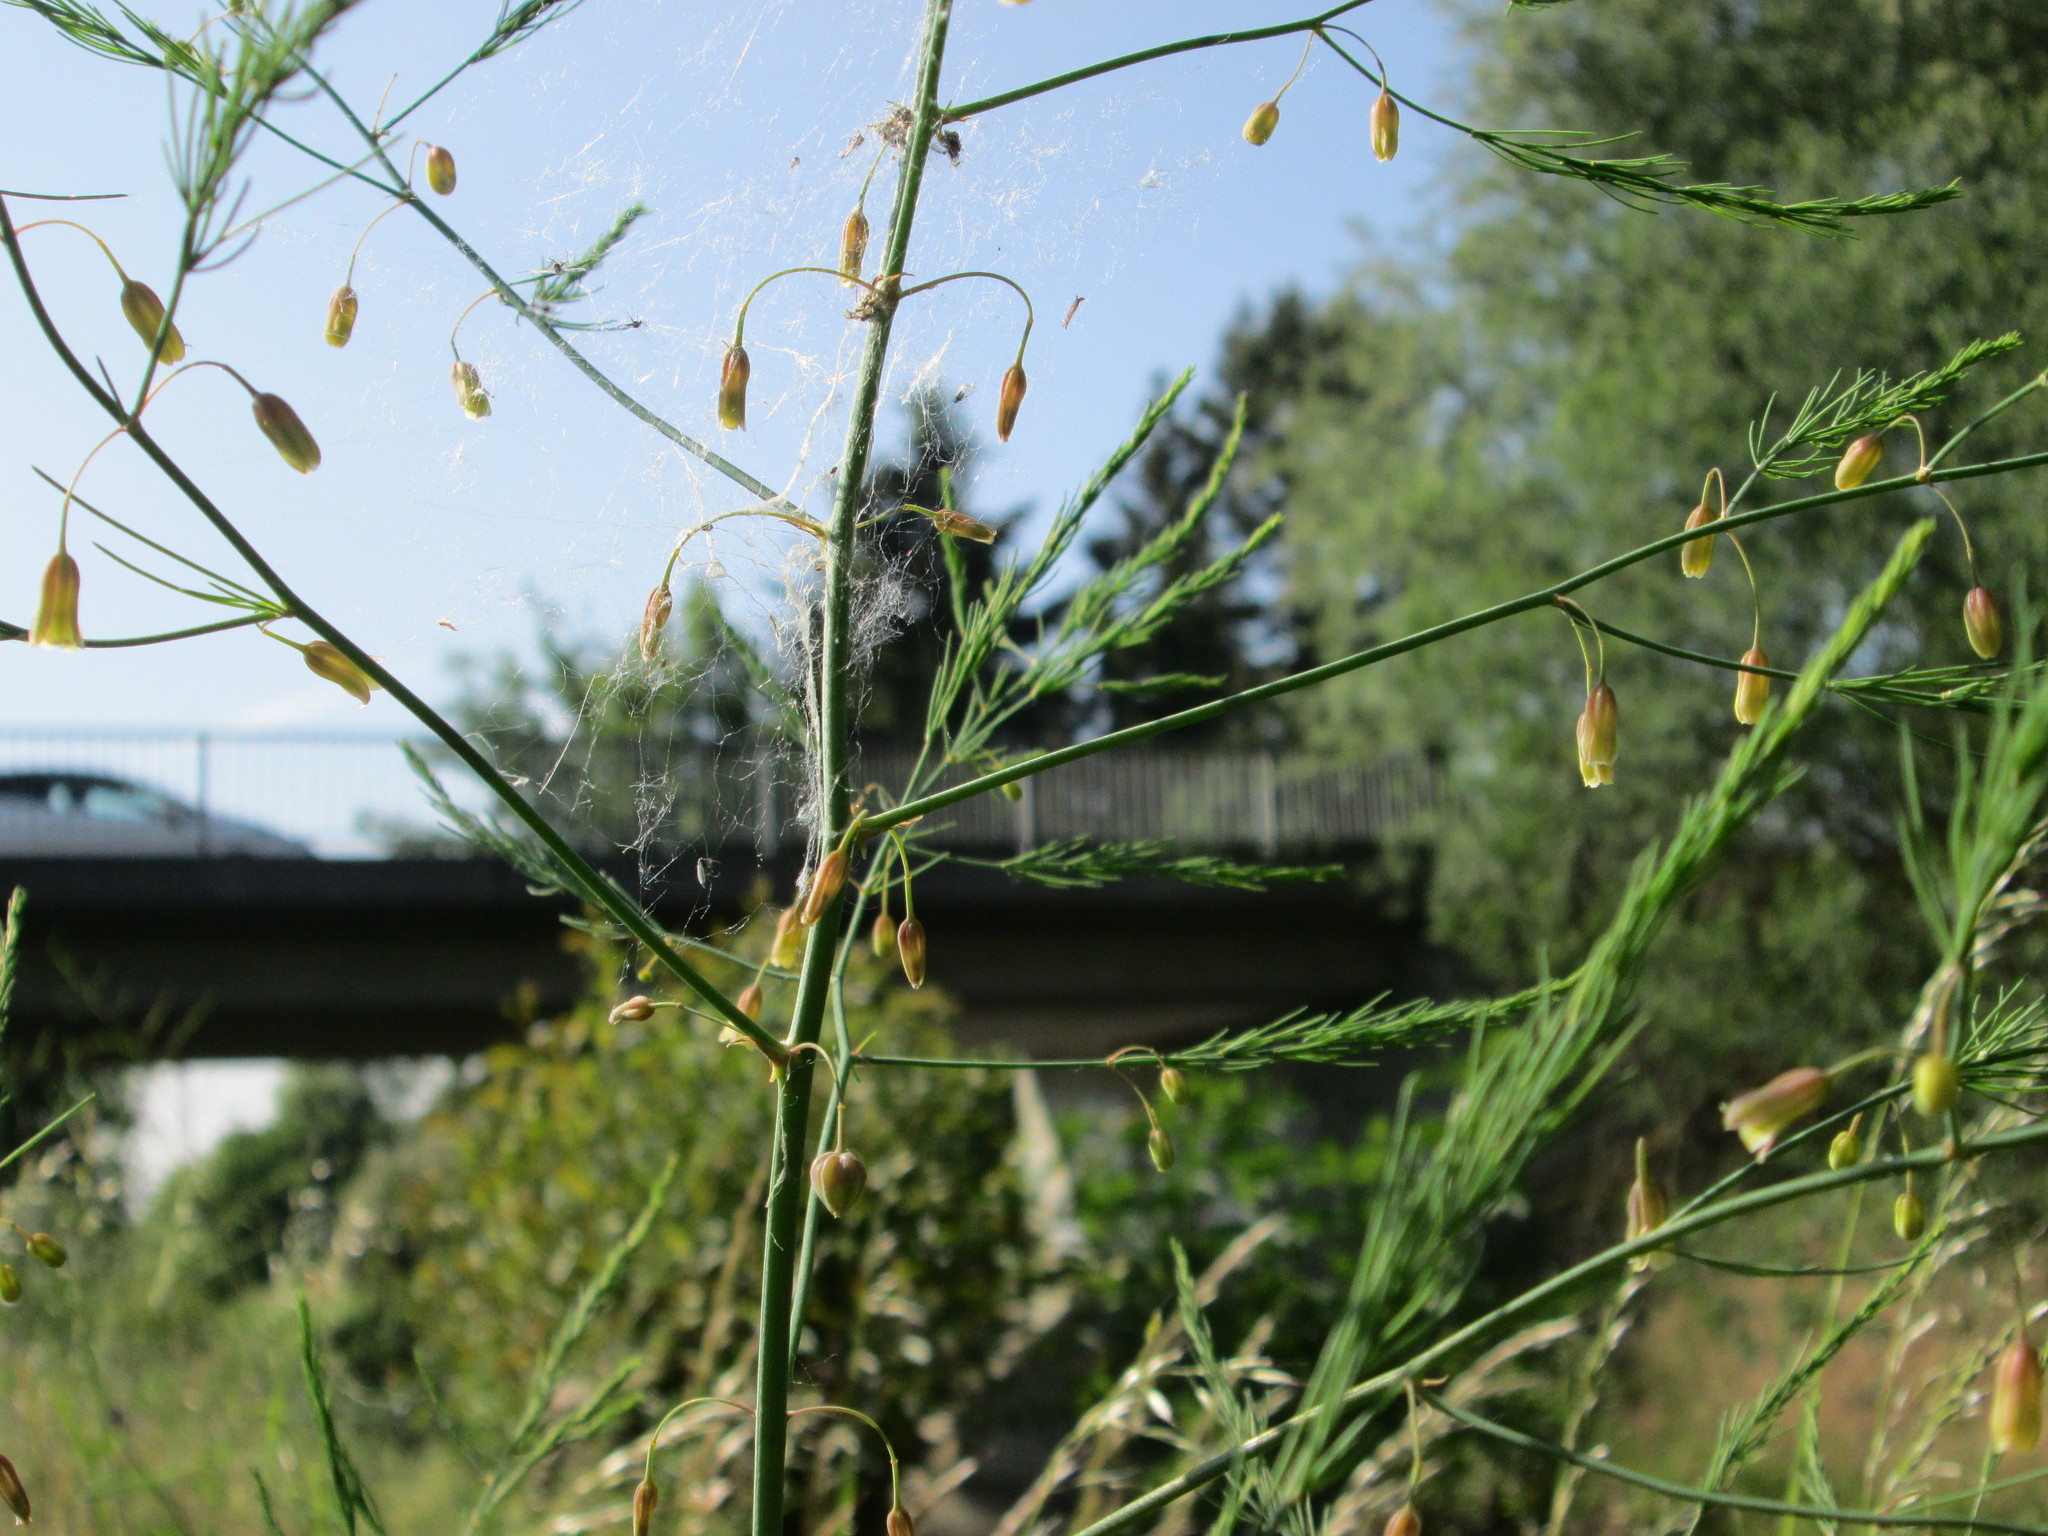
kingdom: Plantae
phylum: Tracheophyta
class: Liliopsida
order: Asparagales
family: Asparagaceae
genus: Asparagus
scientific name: Asparagus officinalis
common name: Garden asparagus
